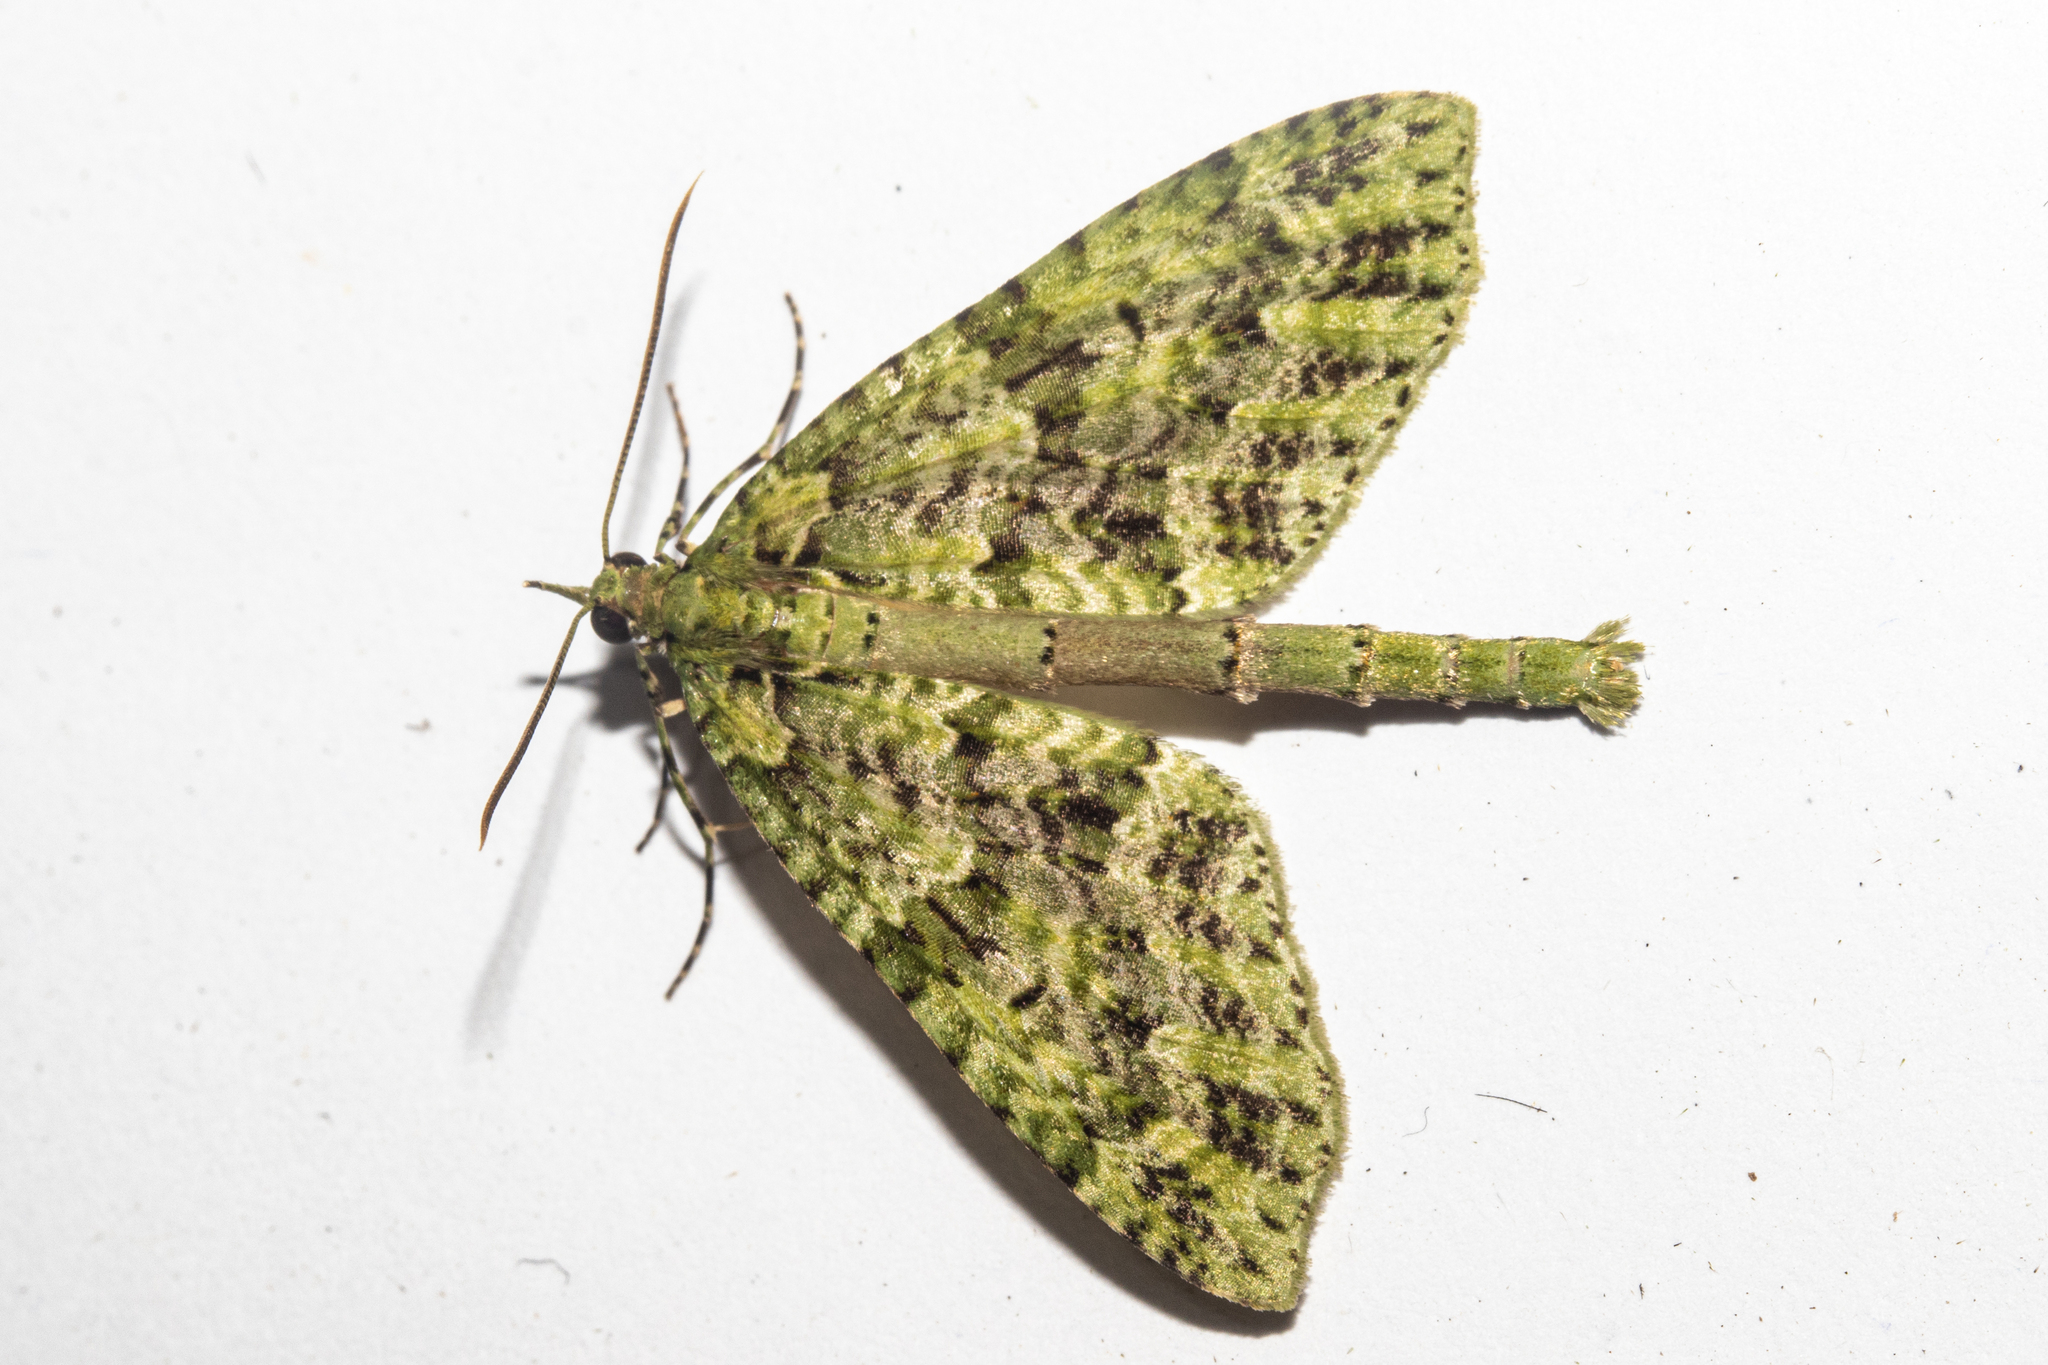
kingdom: Animalia
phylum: Arthropoda
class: Insecta
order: Lepidoptera
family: Geometridae
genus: Tatosoma
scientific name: Tatosoma tipulata
